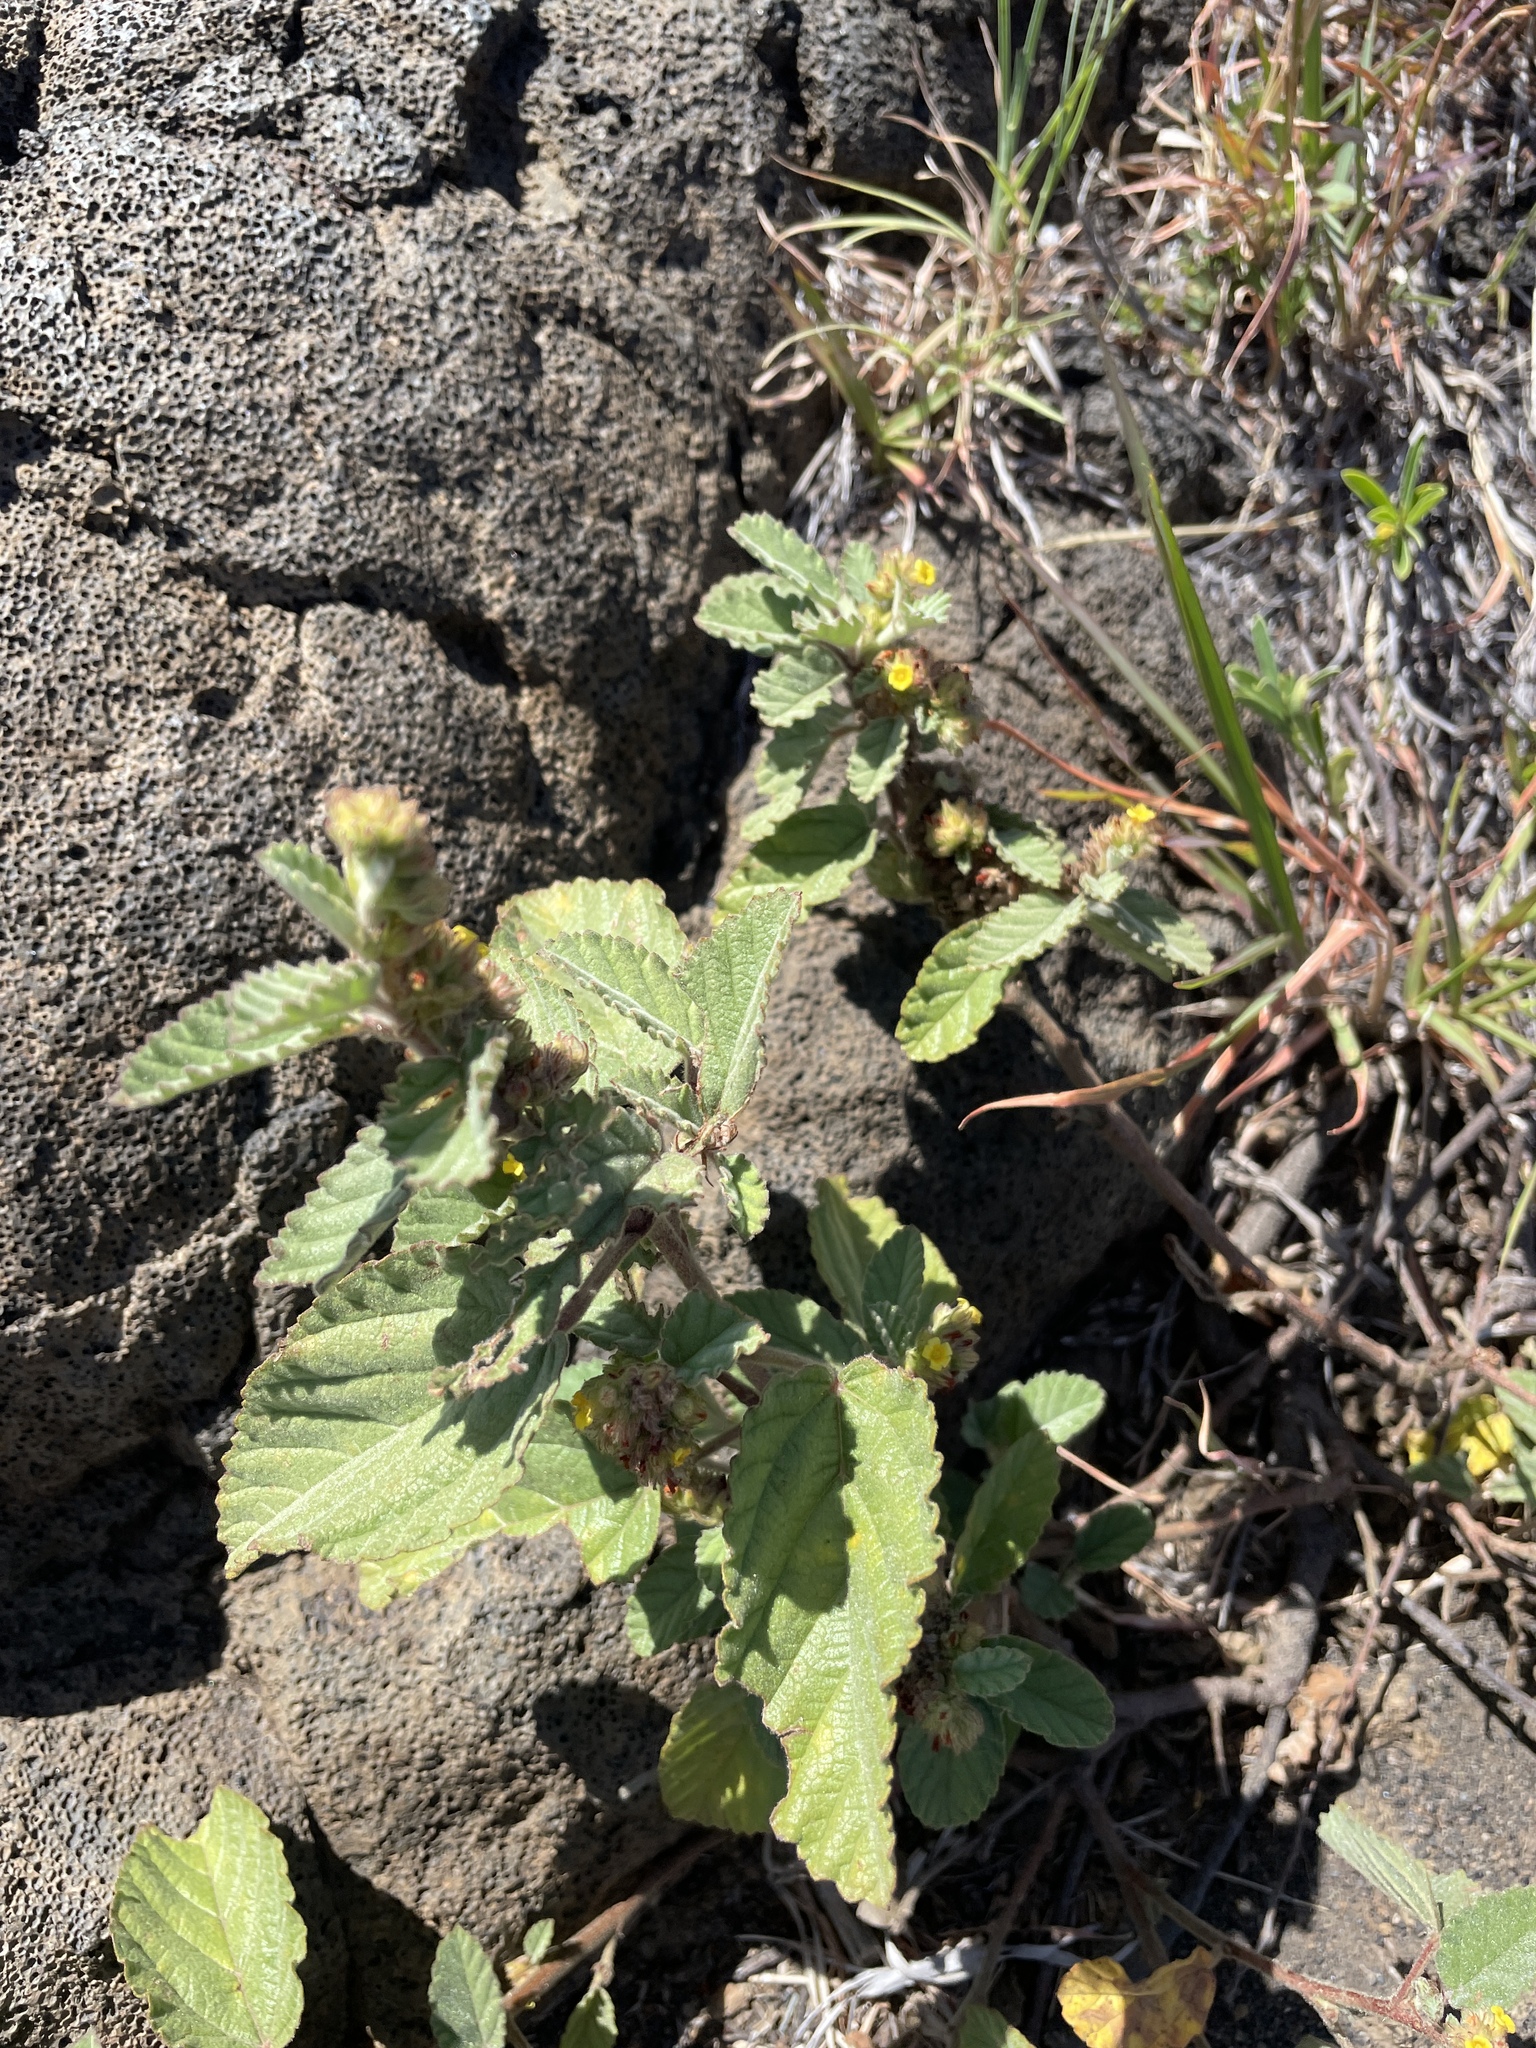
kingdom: Plantae
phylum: Tracheophyta
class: Magnoliopsida
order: Malvales
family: Malvaceae
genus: Waltheria
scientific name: Waltheria indica
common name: Leather-coat
